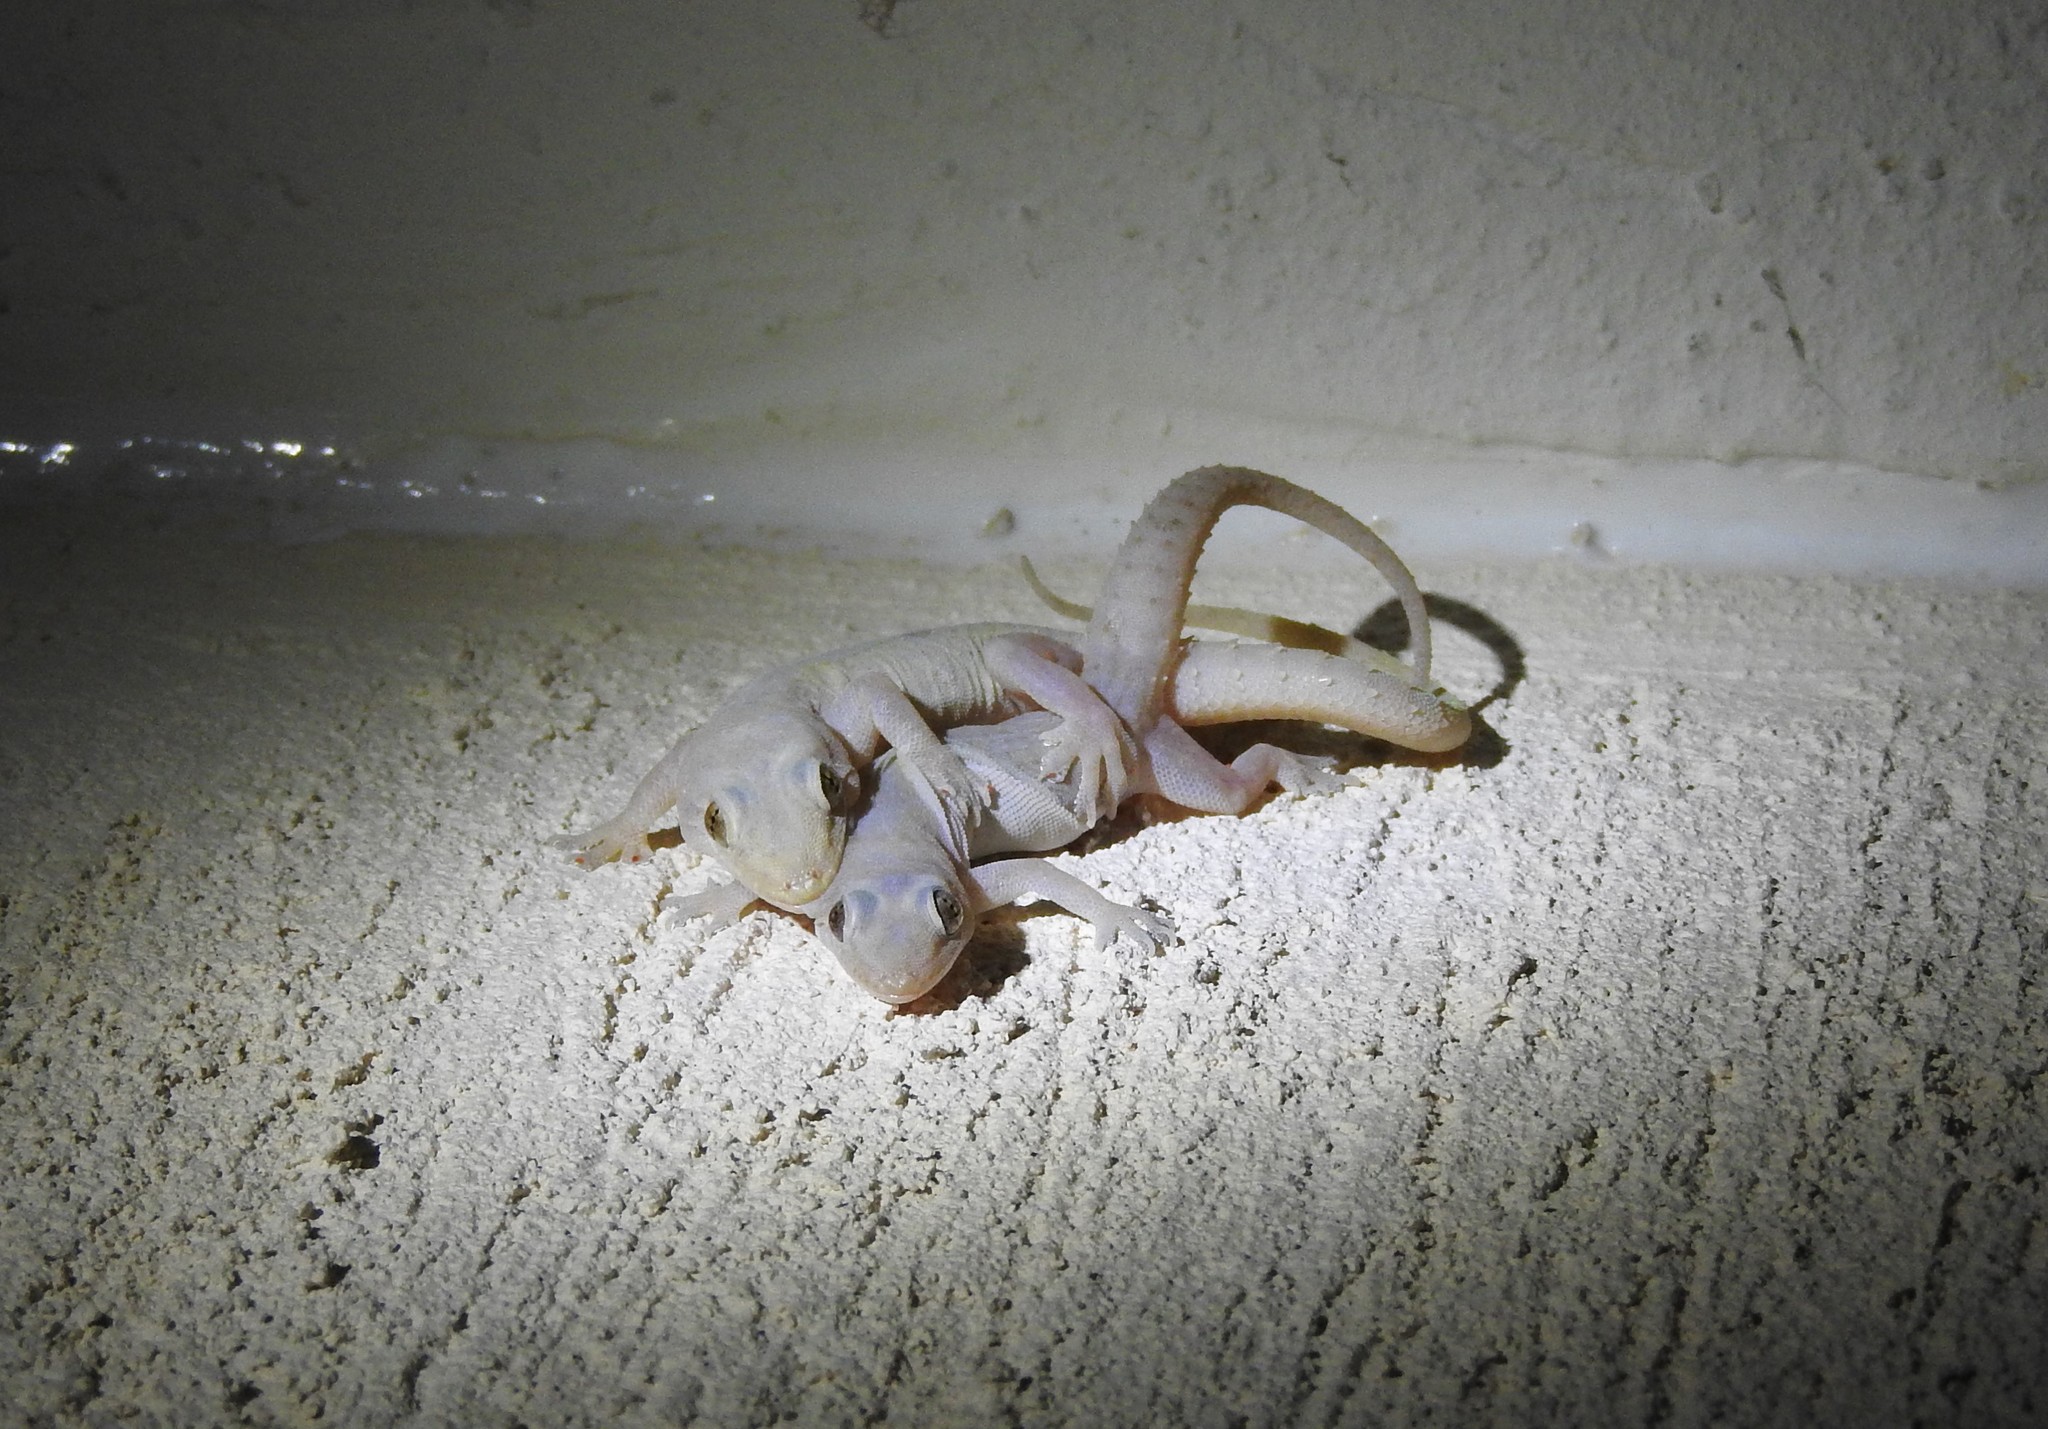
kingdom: Animalia
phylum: Chordata
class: Squamata
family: Gekkonidae
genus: Hemidactylus
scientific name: Hemidactylus frenatus
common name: Common house gecko
